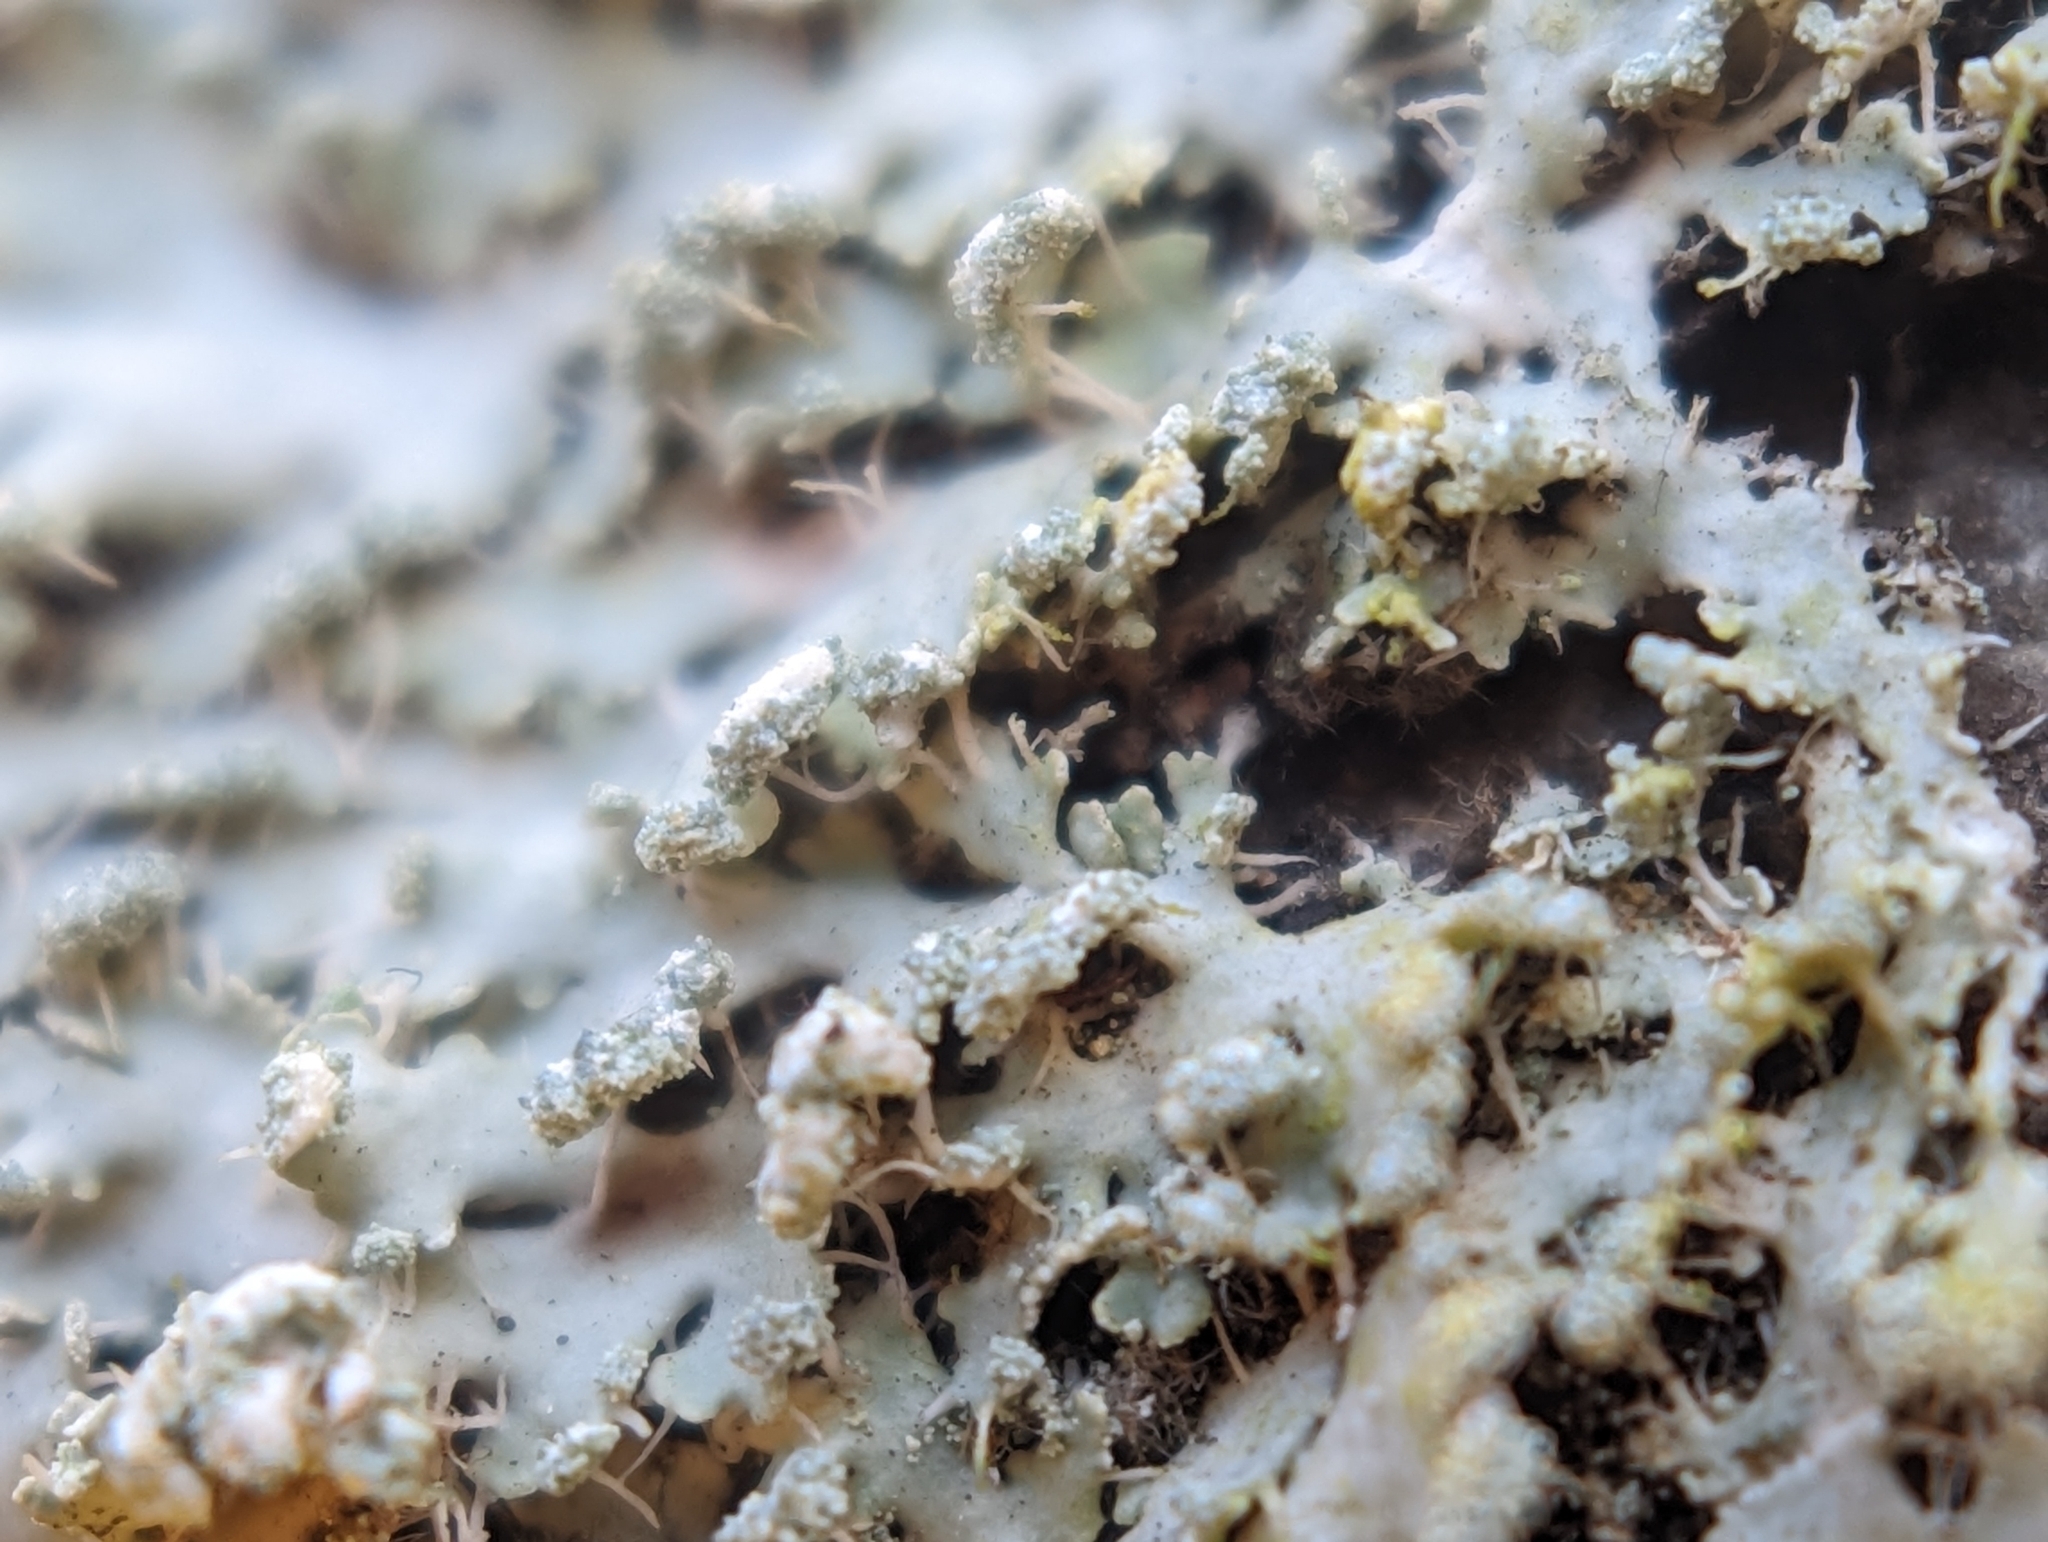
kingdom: Fungi
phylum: Ascomycota
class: Lecanoromycetes
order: Caliciales
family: Physciaceae
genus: Heterodermia
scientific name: Heterodermia speciosa
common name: Powdered fringe lichen
